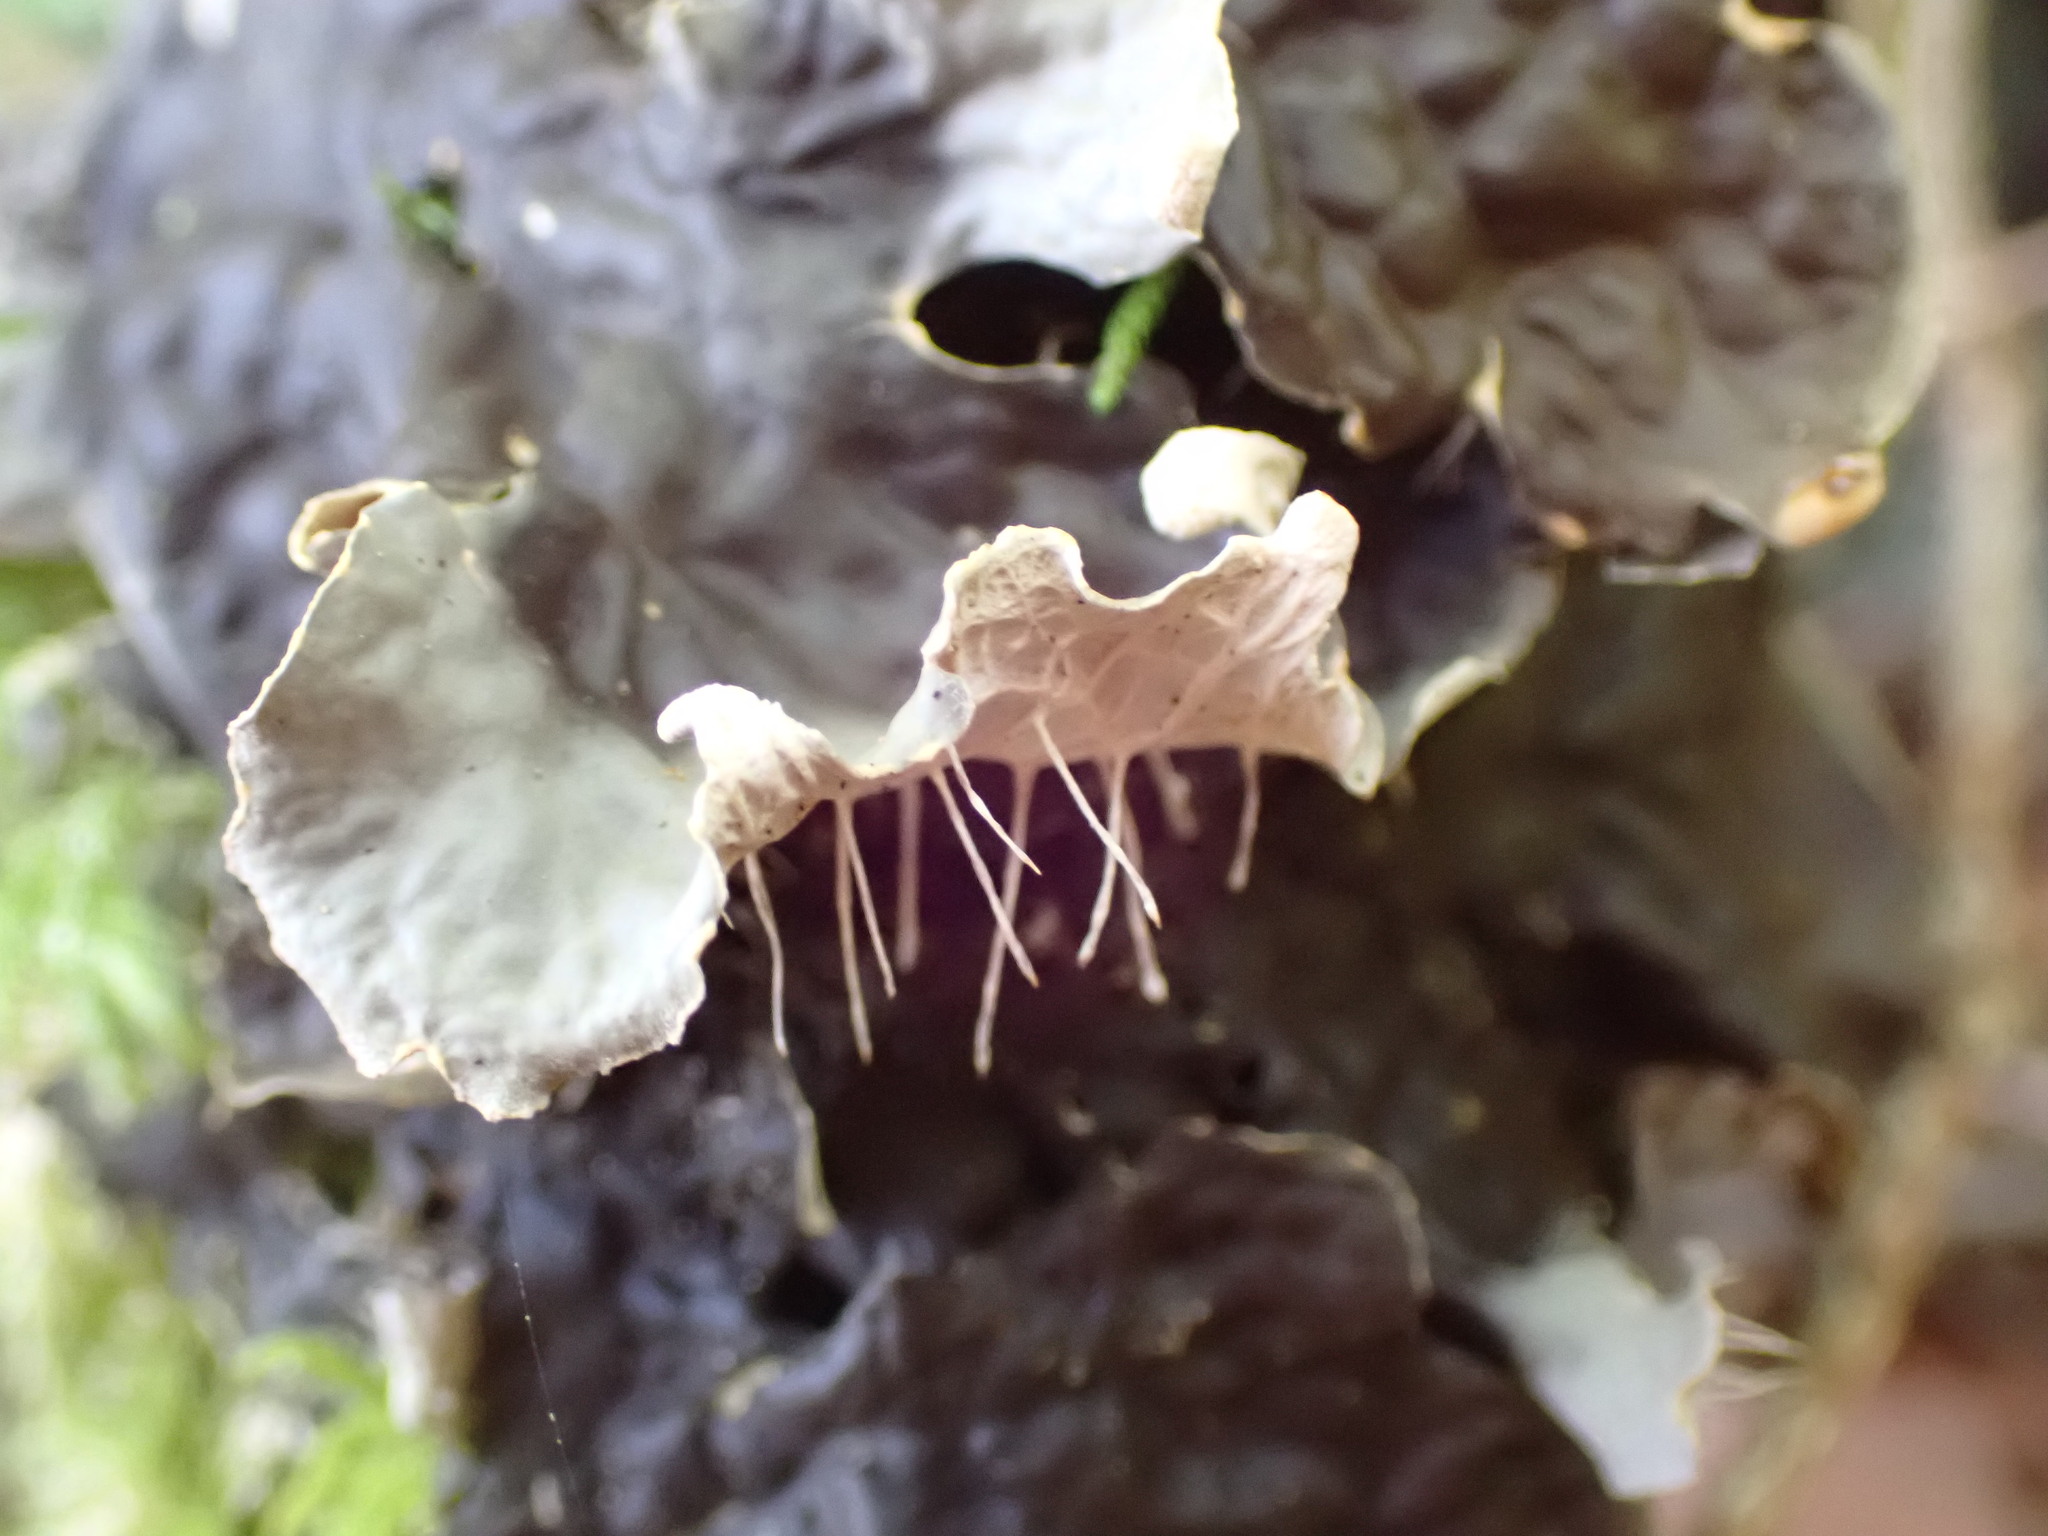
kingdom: Fungi
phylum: Ascomycota
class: Lecanoromycetes
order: Peltigerales
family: Peltigeraceae
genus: Peltigera
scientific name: Peltigera membranacea
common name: Membranous pelt lichen
